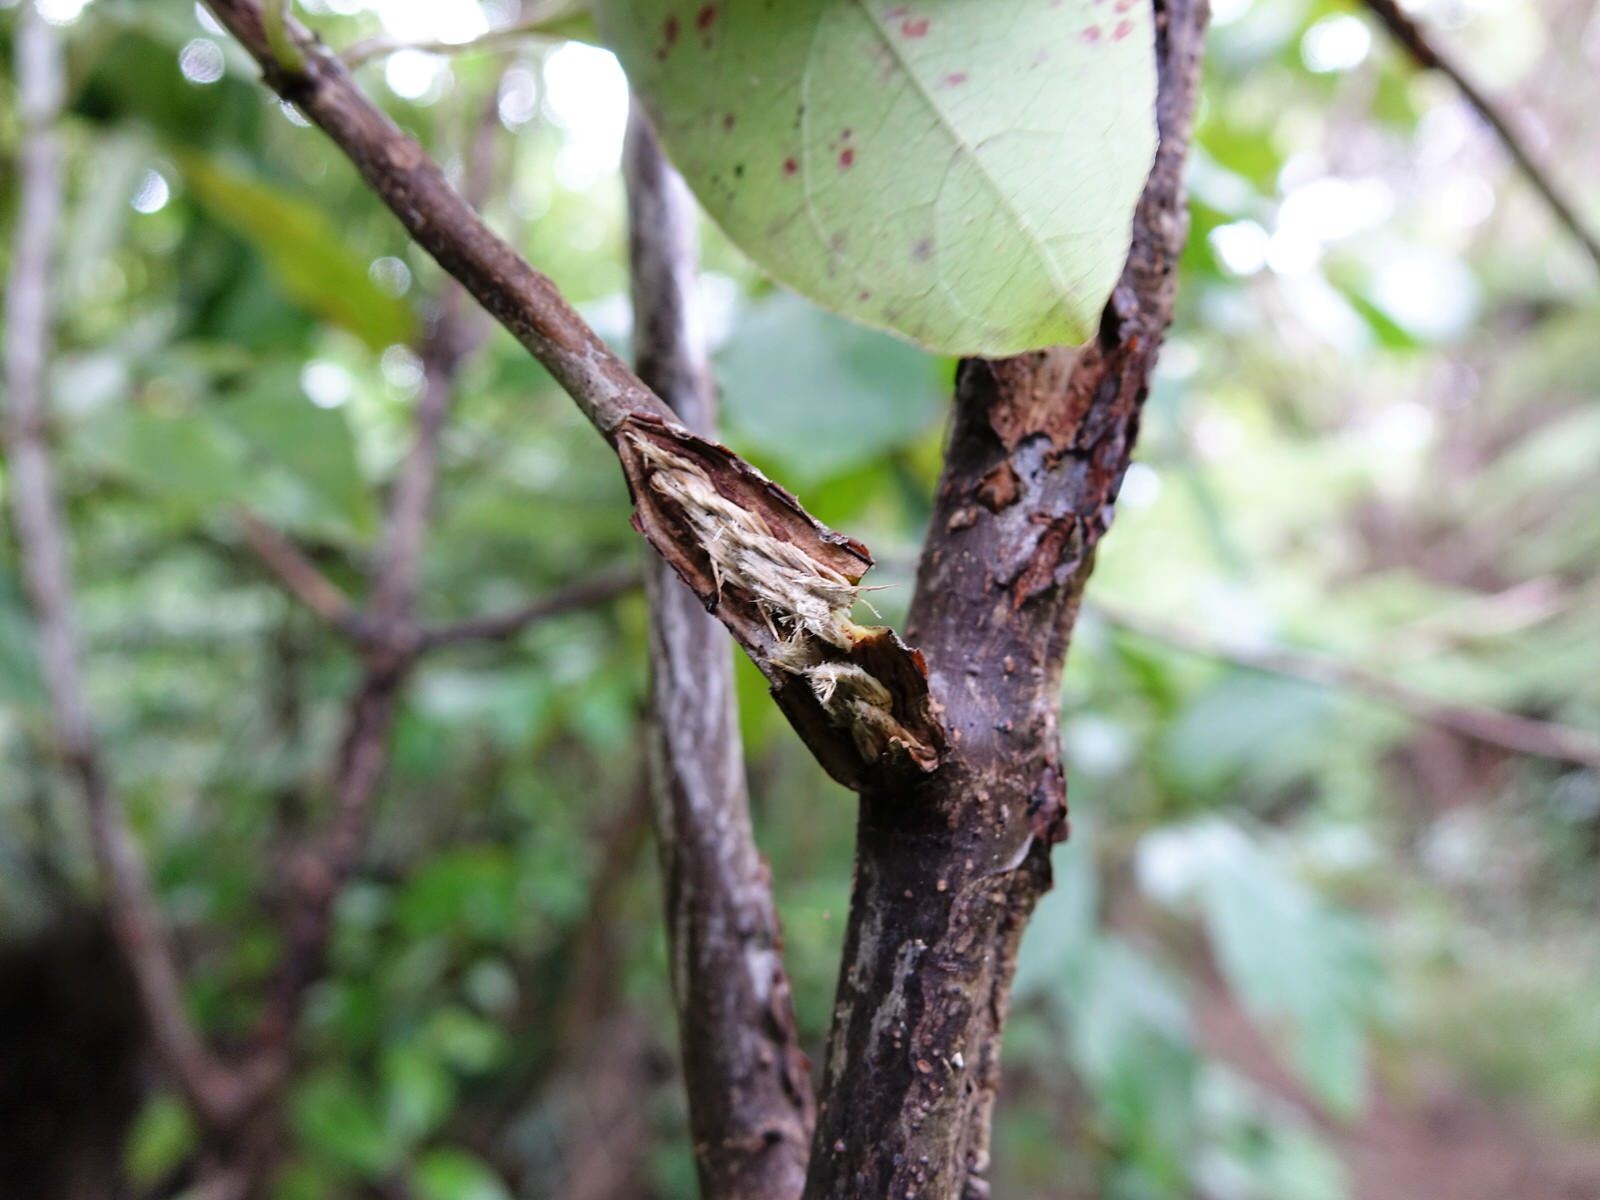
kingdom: Plantae
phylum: Tracheophyta
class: Magnoliopsida
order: Gentianales
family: Rubiaceae
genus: Coprosma
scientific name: Coprosma autumnalis
